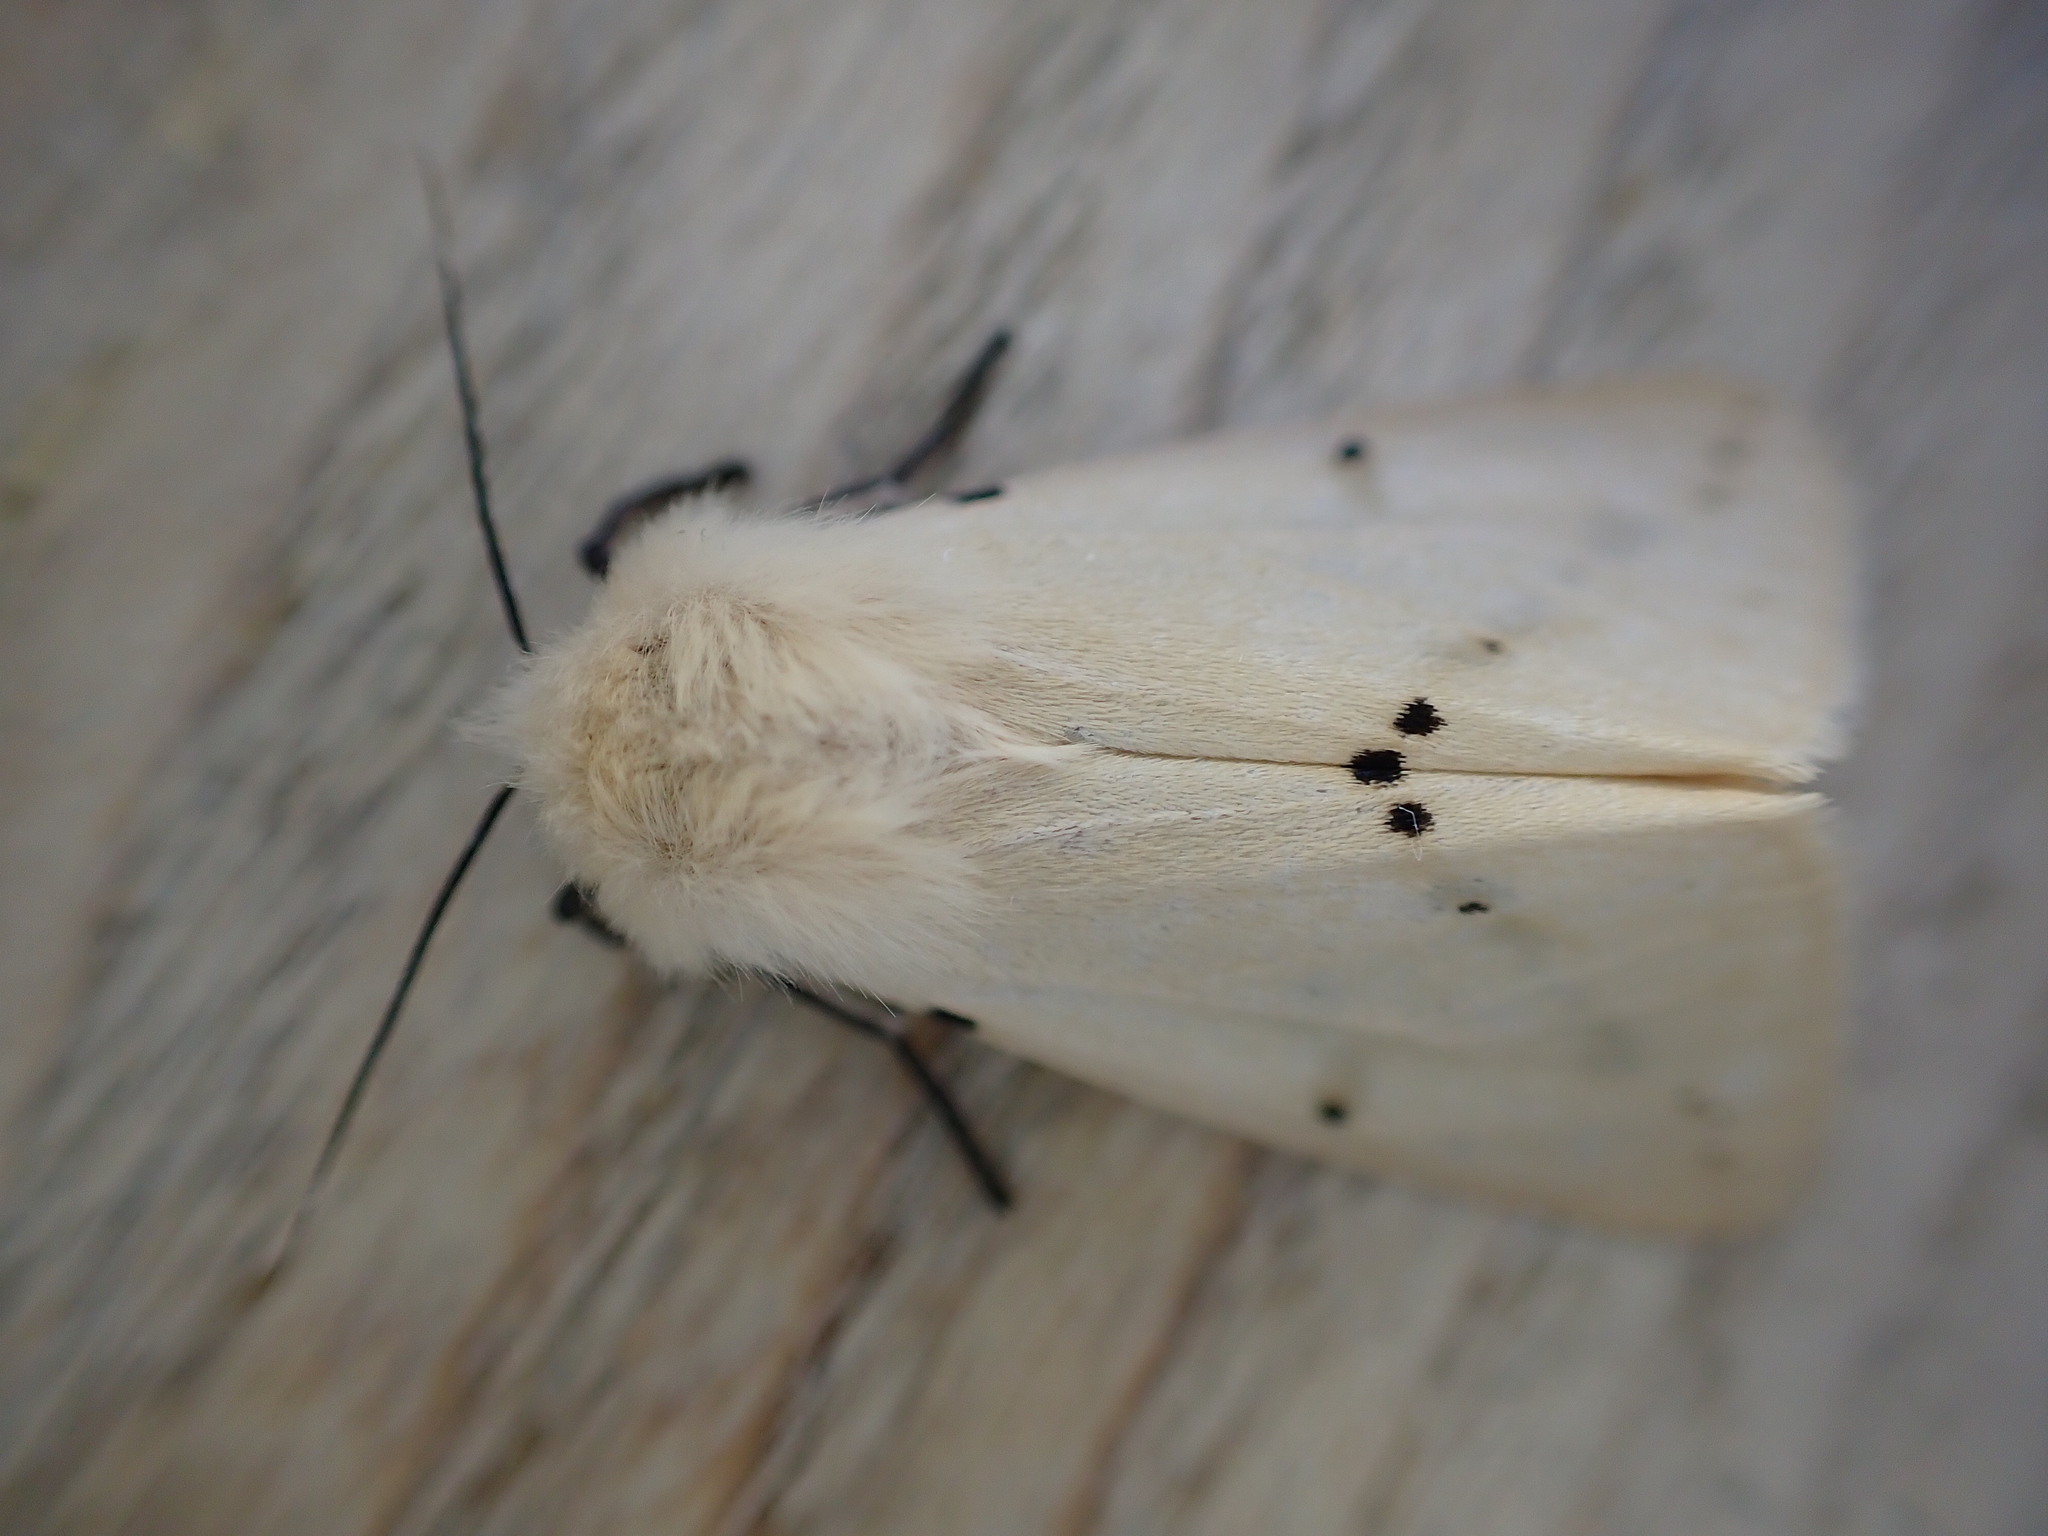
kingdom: Animalia
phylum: Arthropoda
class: Insecta
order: Lepidoptera
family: Erebidae
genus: Spilarctia
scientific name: Spilarctia lutea
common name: Buff ermine
